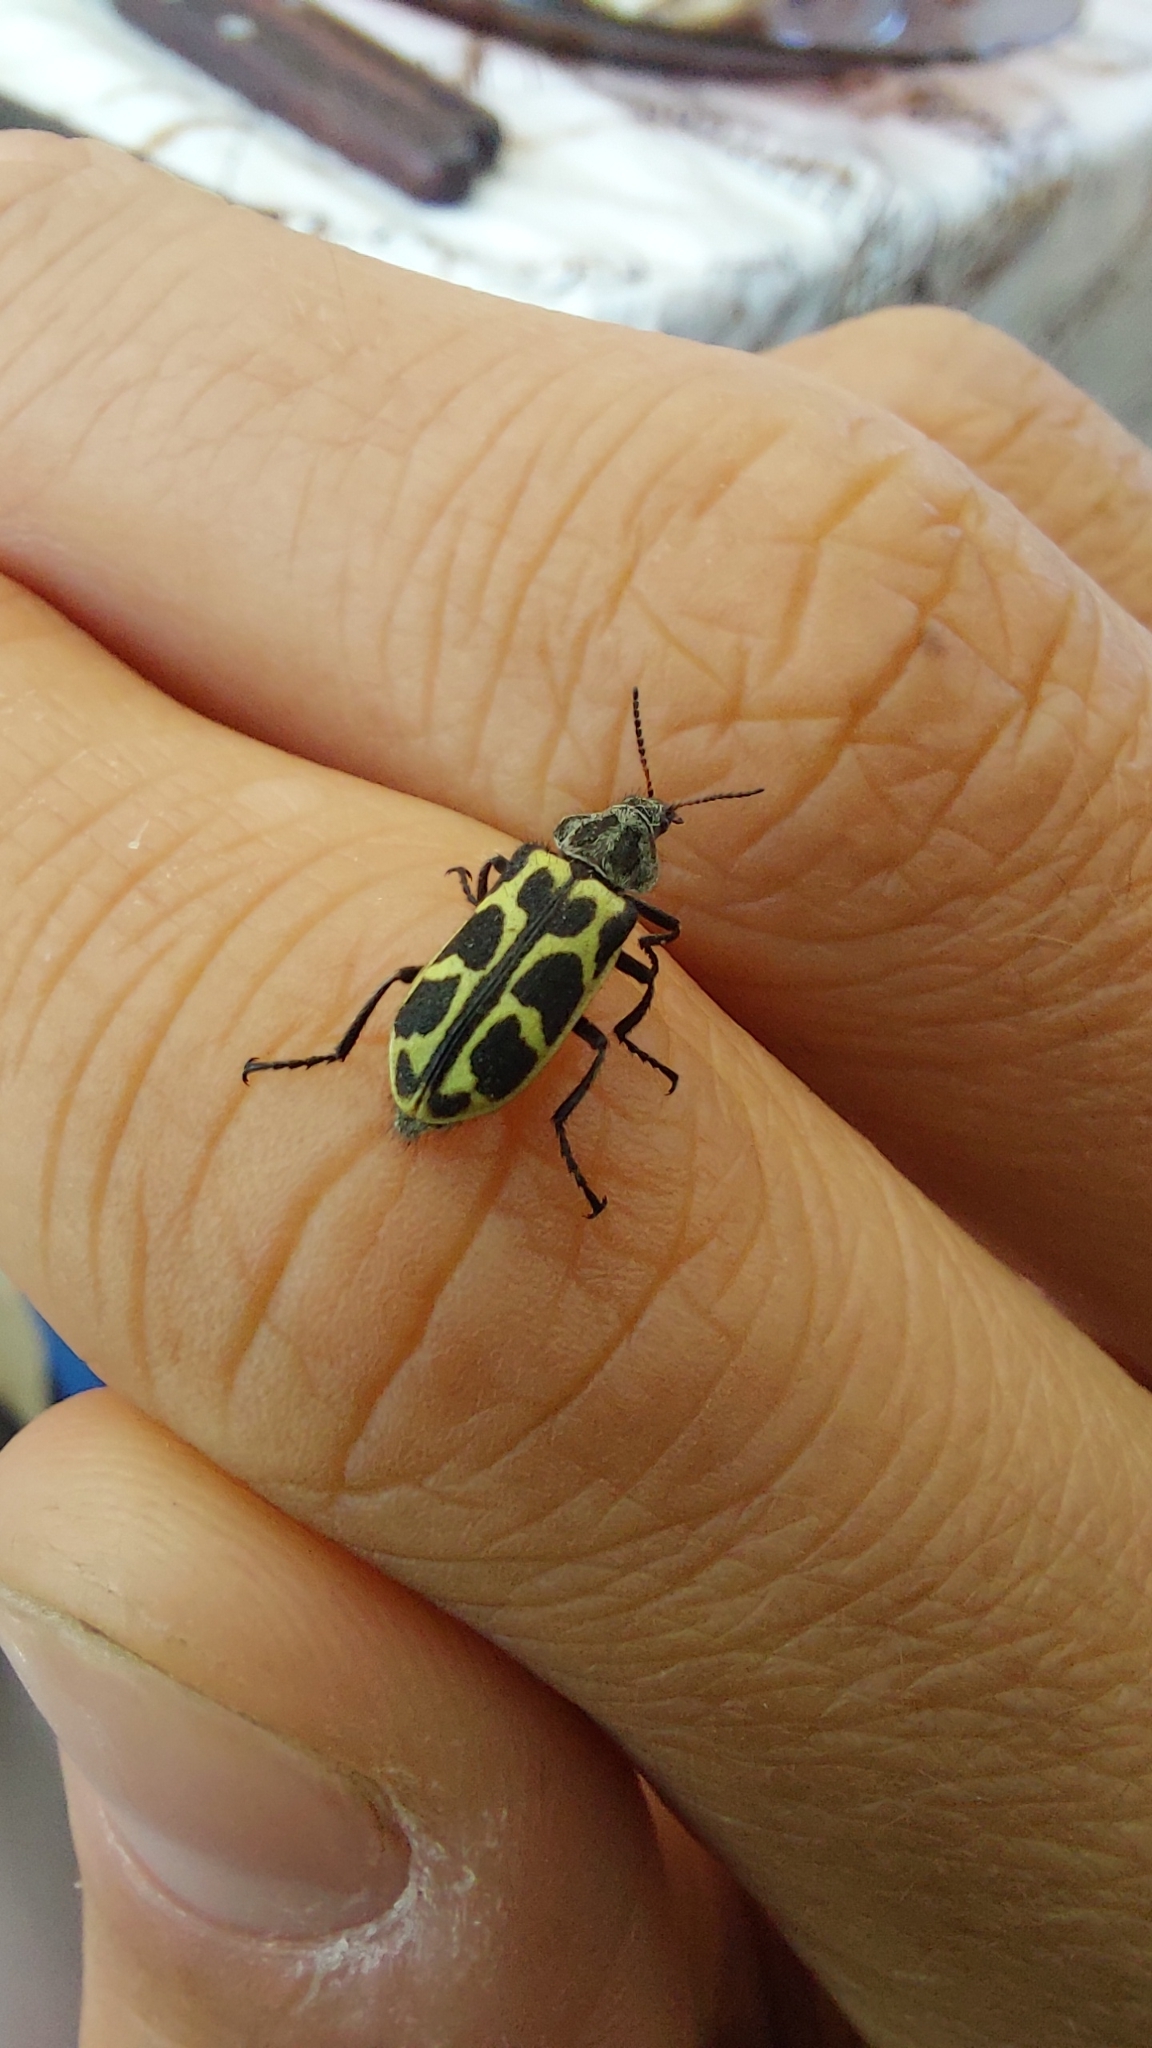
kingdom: Animalia
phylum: Arthropoda
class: Insecta
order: Coleoptera
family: Melyridae
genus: Astylus
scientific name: Astylus atromaculatus
